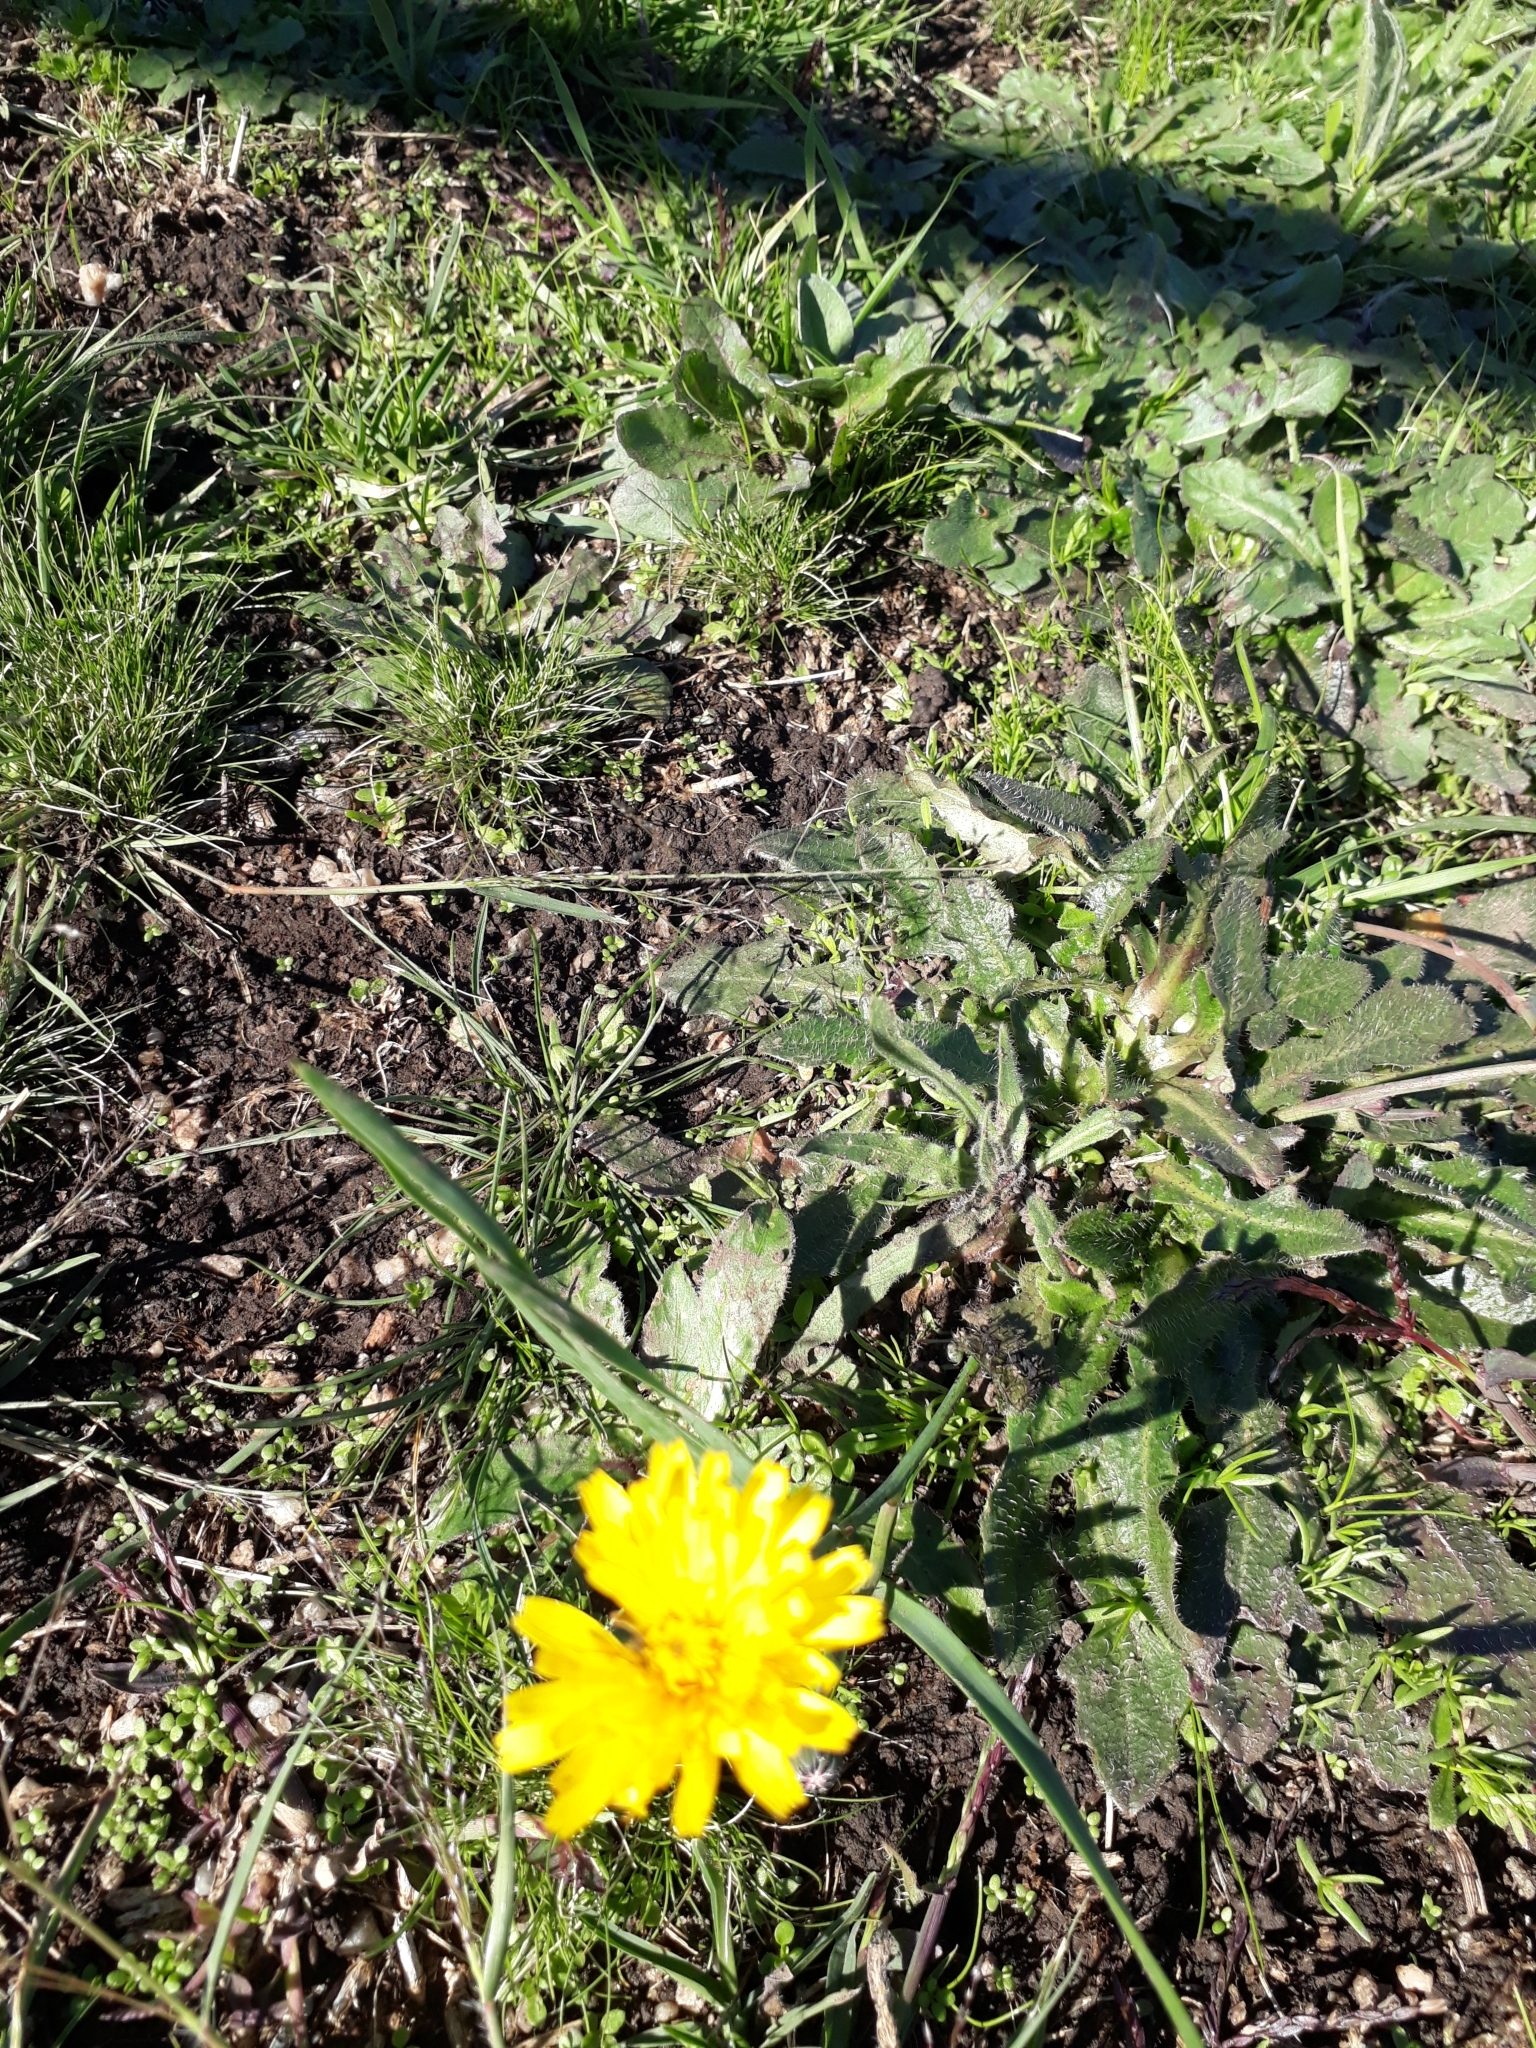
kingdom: Plantae
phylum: Tracheophyta
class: Magnoliopsida
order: Asterales
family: Asteraceae
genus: Hypochaeris
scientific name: Hypochaeris radicata
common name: Flatweed
